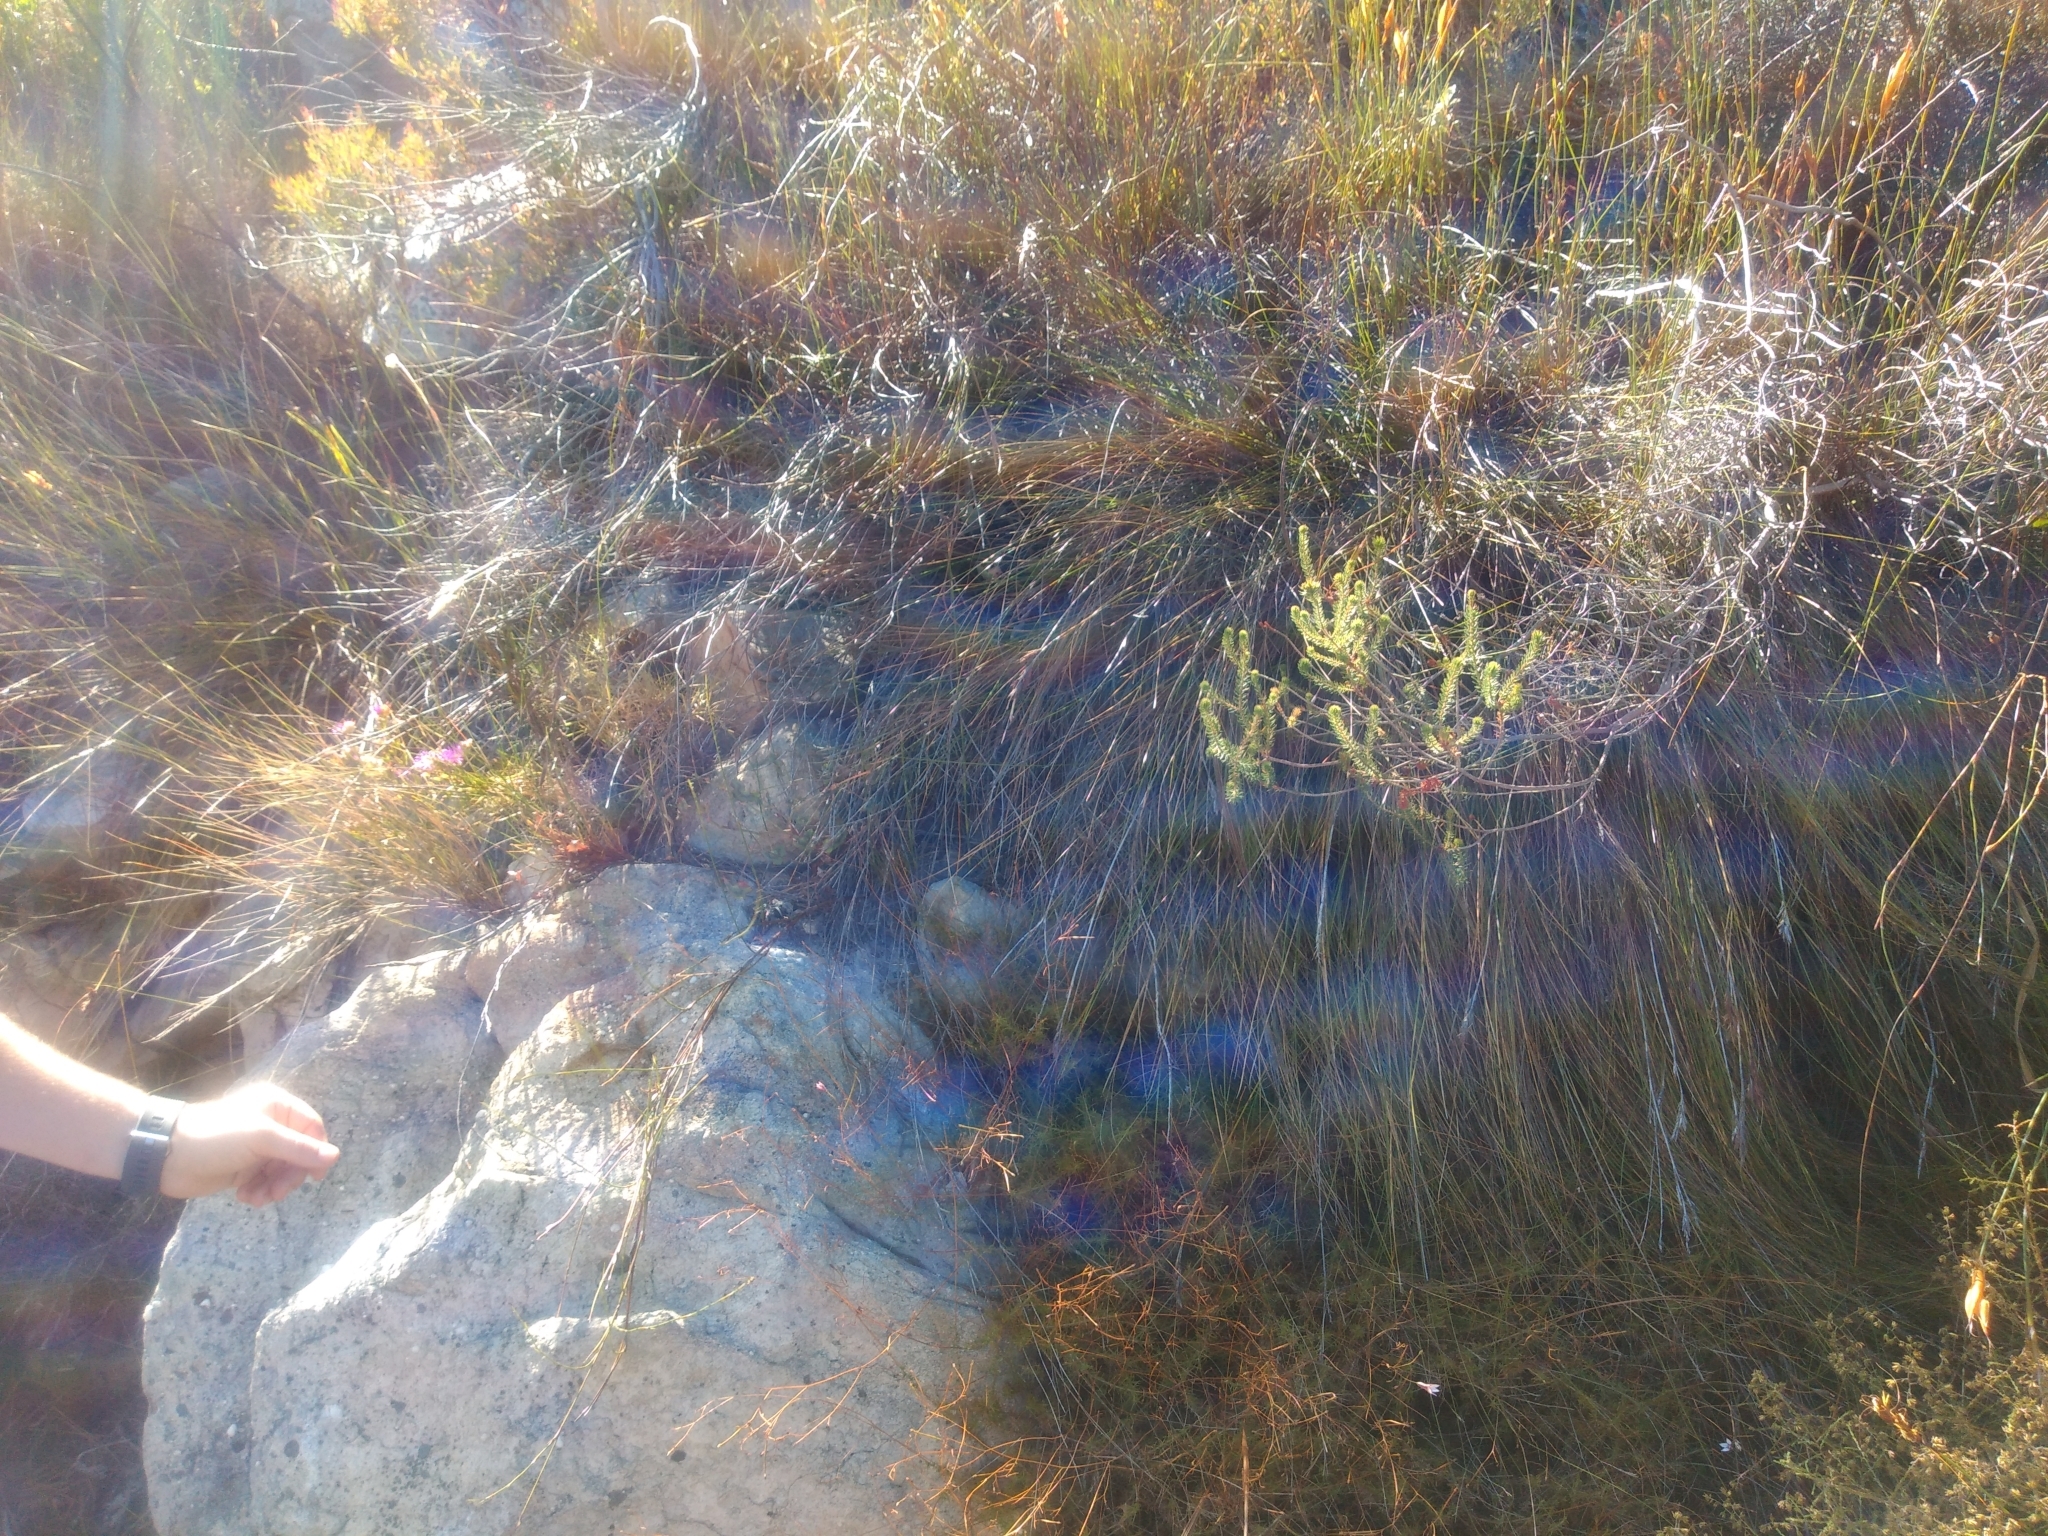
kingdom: Plantae
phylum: Tracheophyta
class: Magnoliopsida
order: Ericales
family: Ericaceae
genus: Erica
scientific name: Erica abietina
